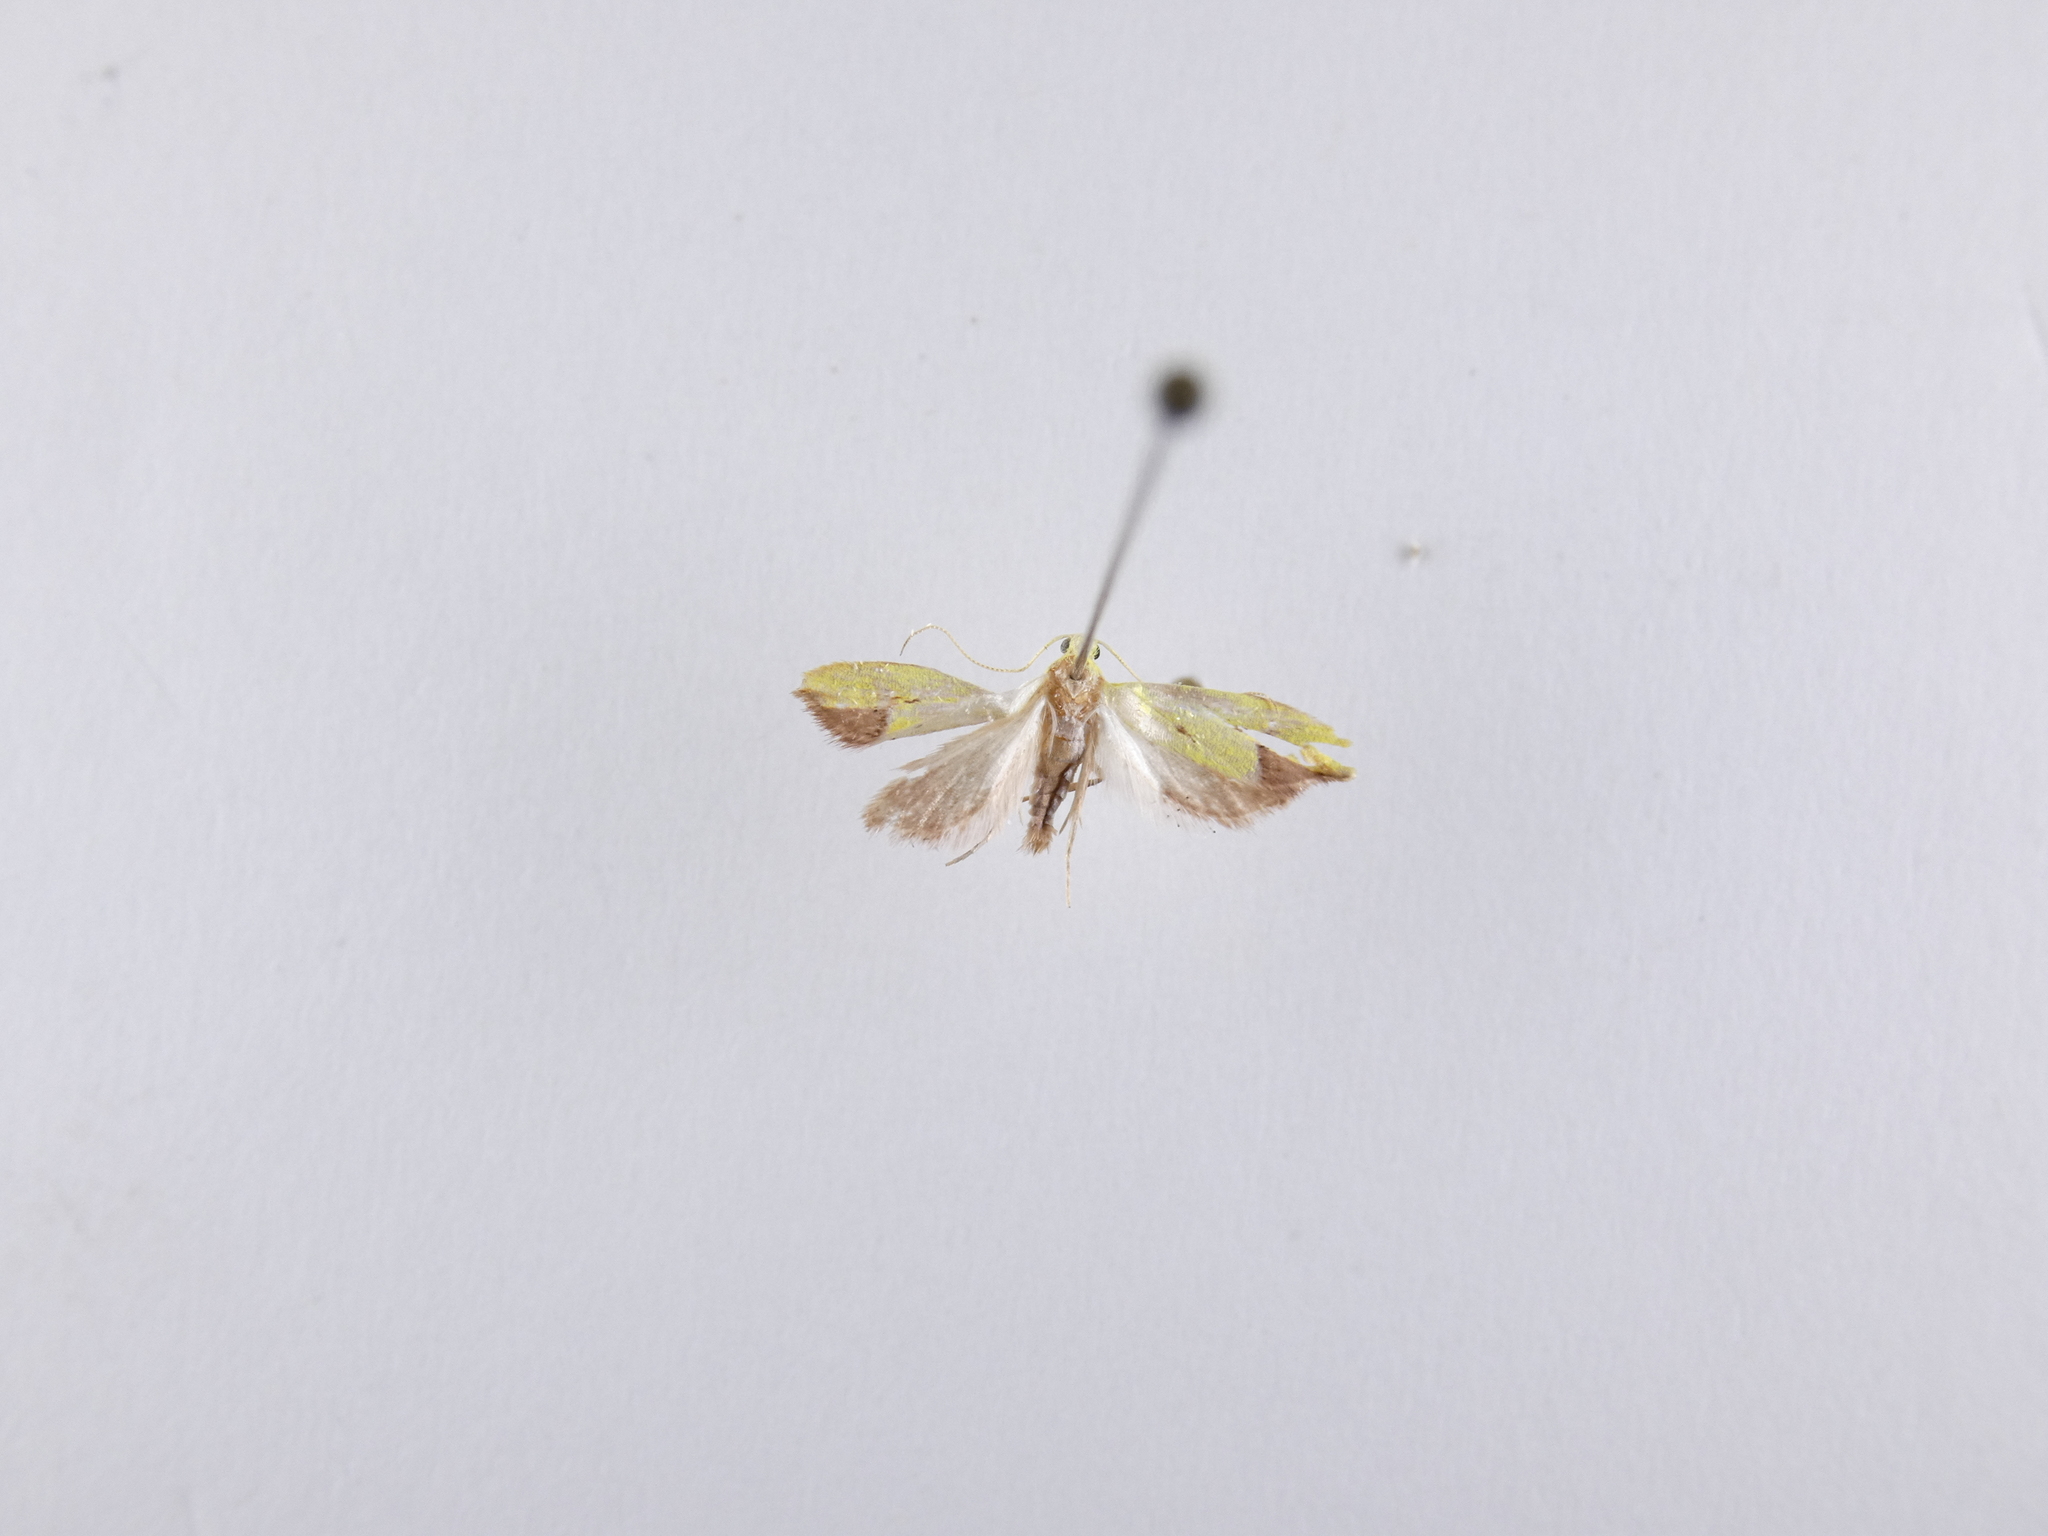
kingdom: Animalia
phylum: Arthropoda
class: Insecta
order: Lepidoptera
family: Oecophoridae
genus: Gymnobathra
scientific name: Gymnobathra flavidella
